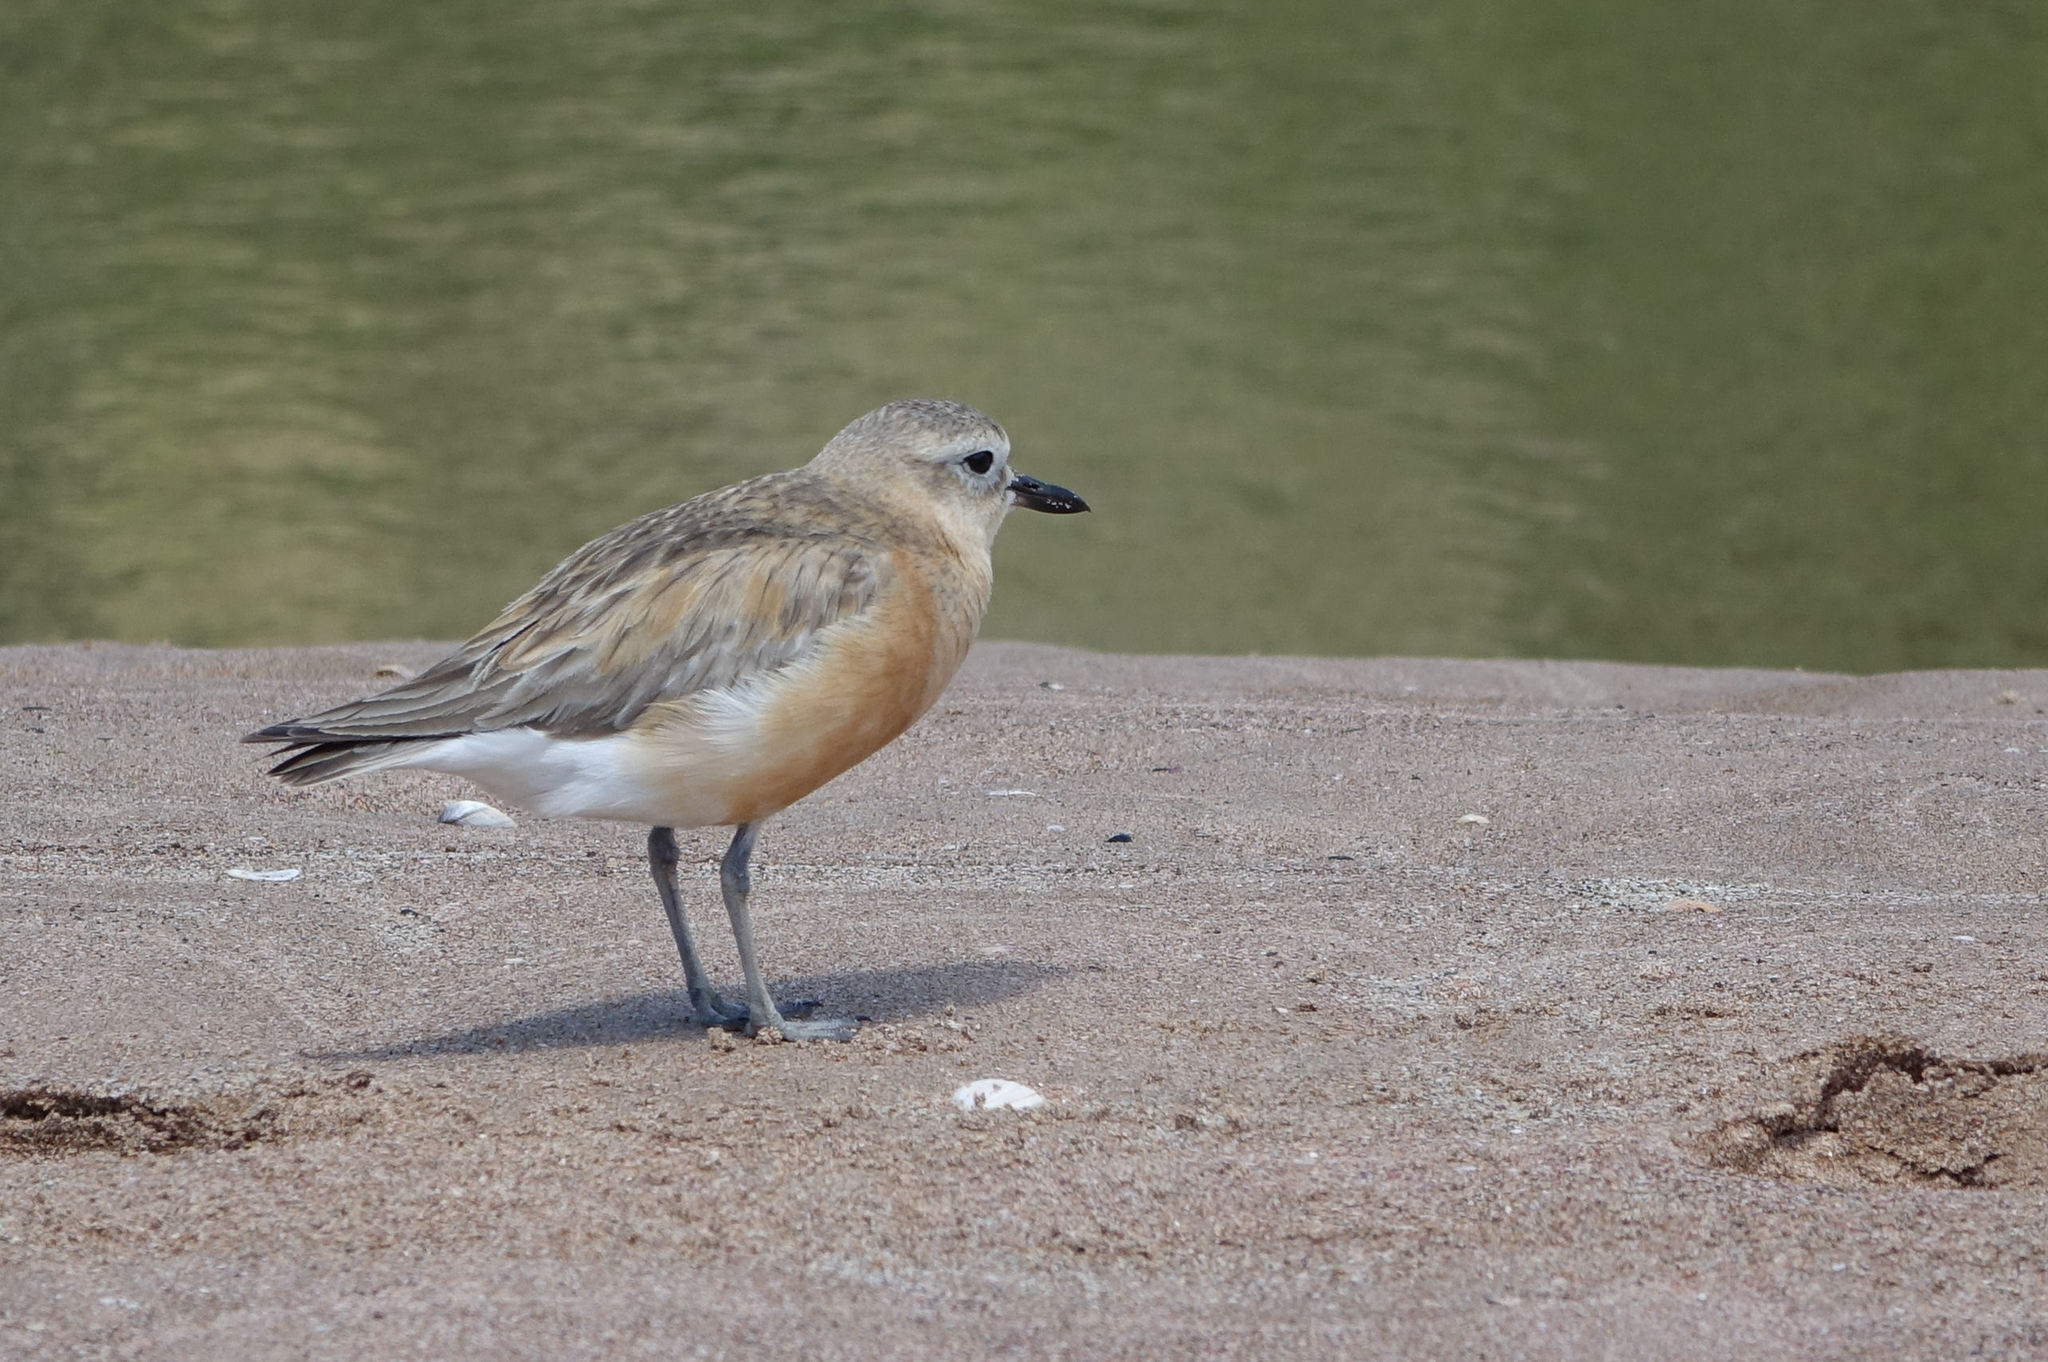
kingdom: Animalia
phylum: Chordata
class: Aves
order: Charadriiformes
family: Charadriidae
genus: Anarhynchus
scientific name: Anarhynchus
